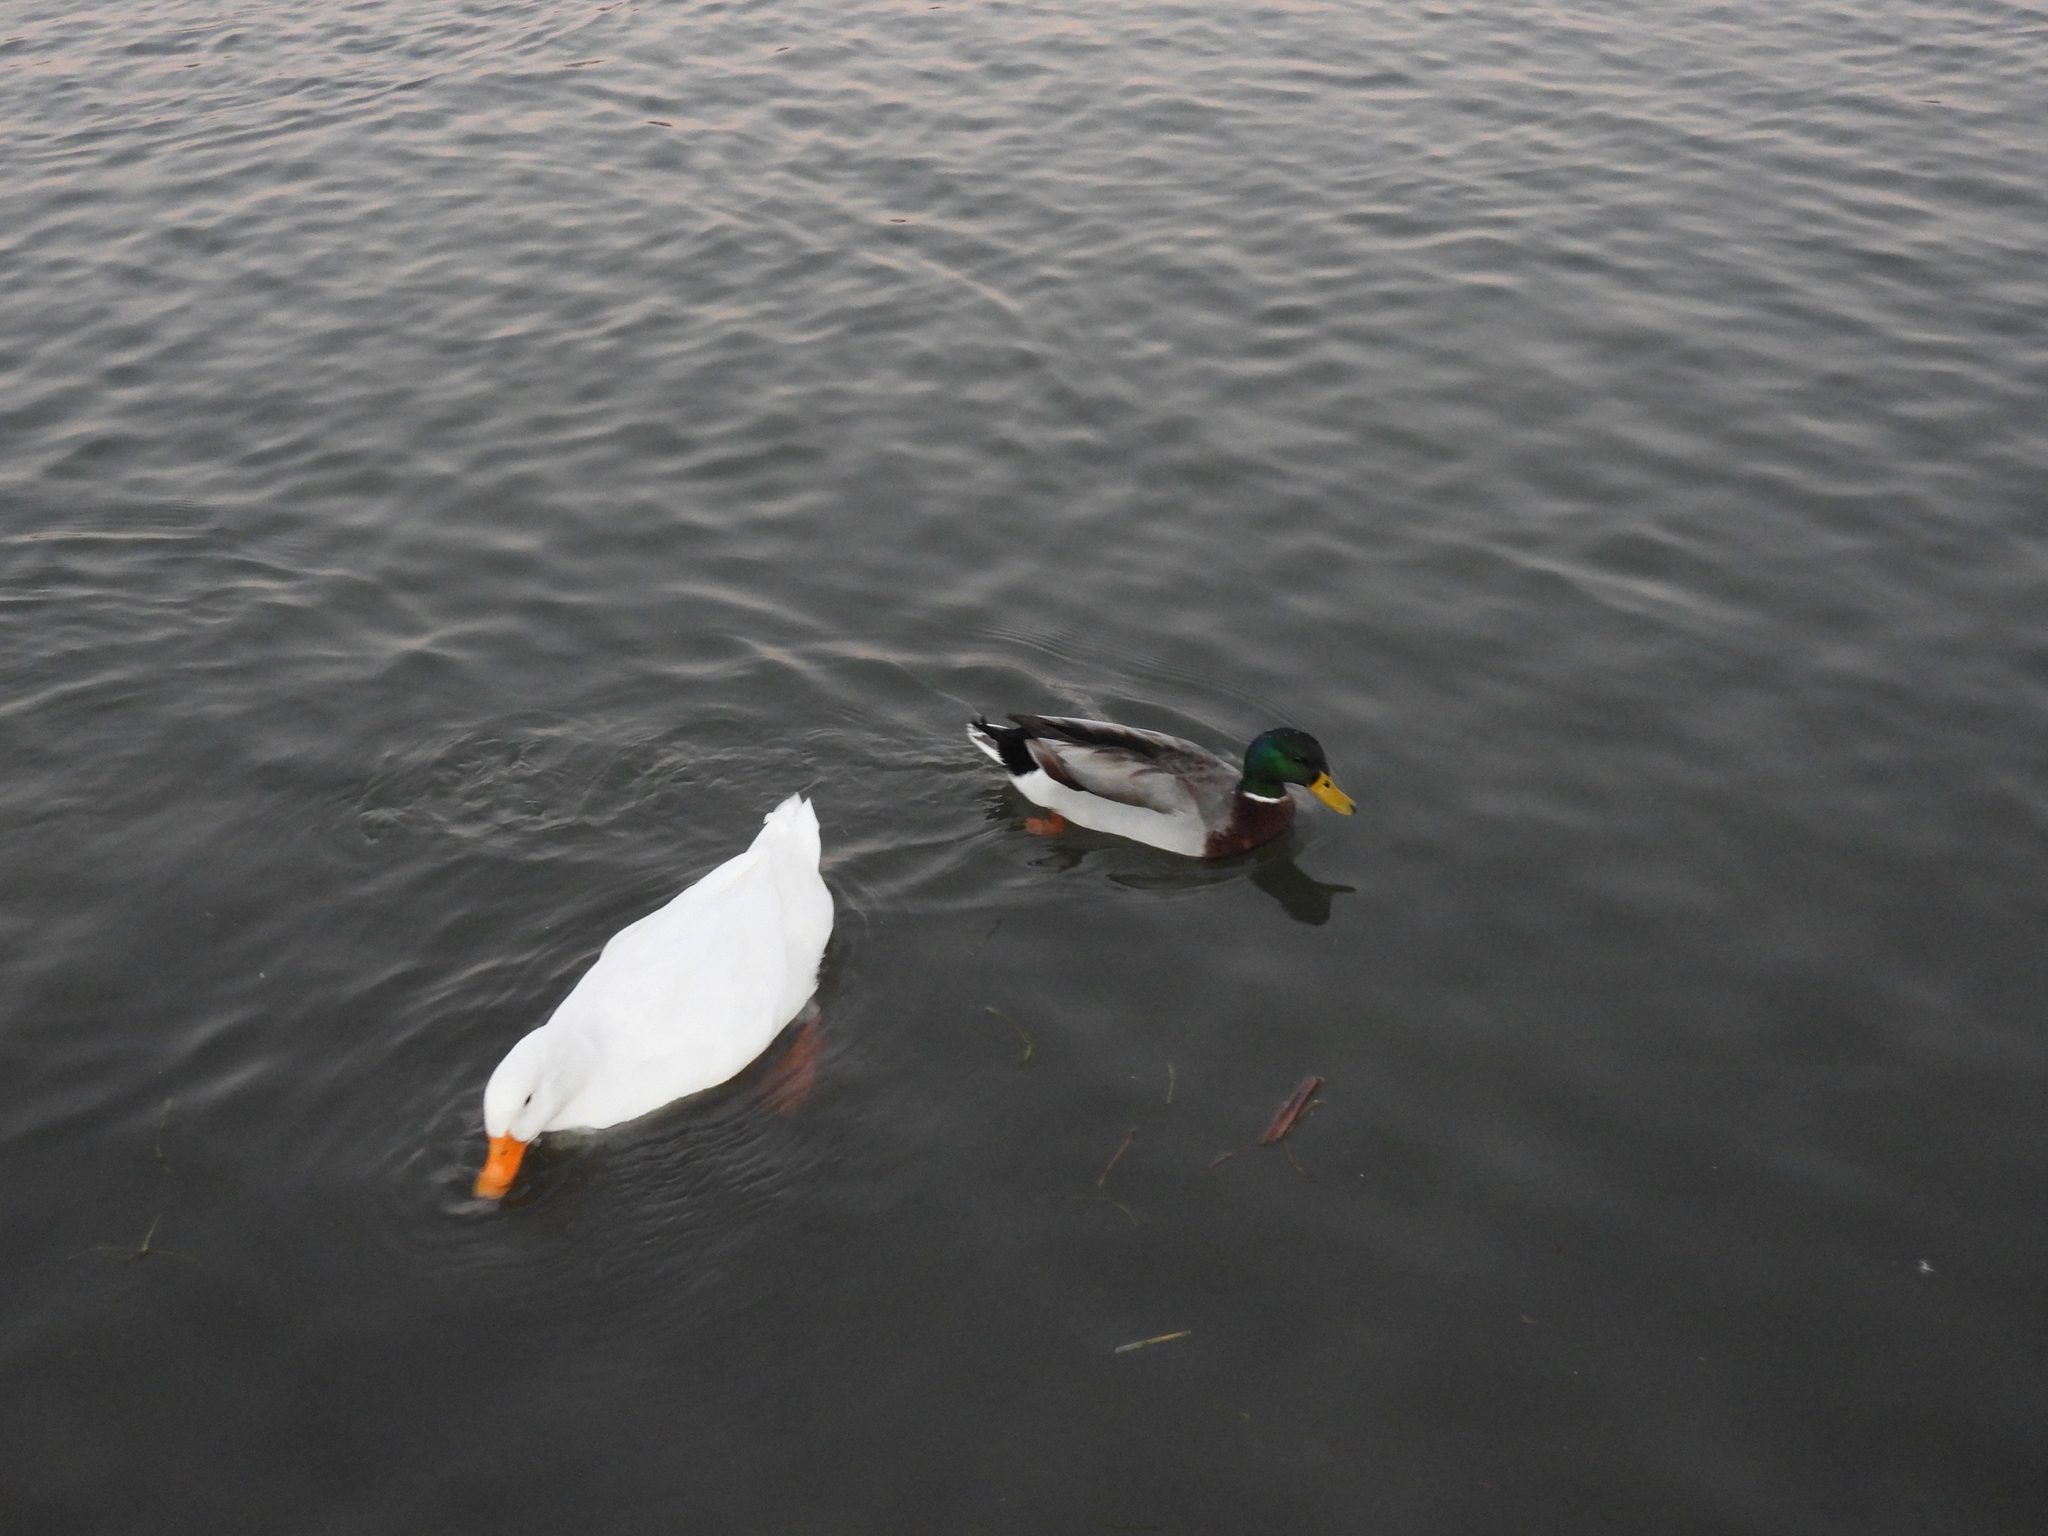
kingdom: Animalia
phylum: Chordata
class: Aves
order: Anseriformes
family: Anatidae
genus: Anas
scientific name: Anas platyrhynchos
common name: Mallard
